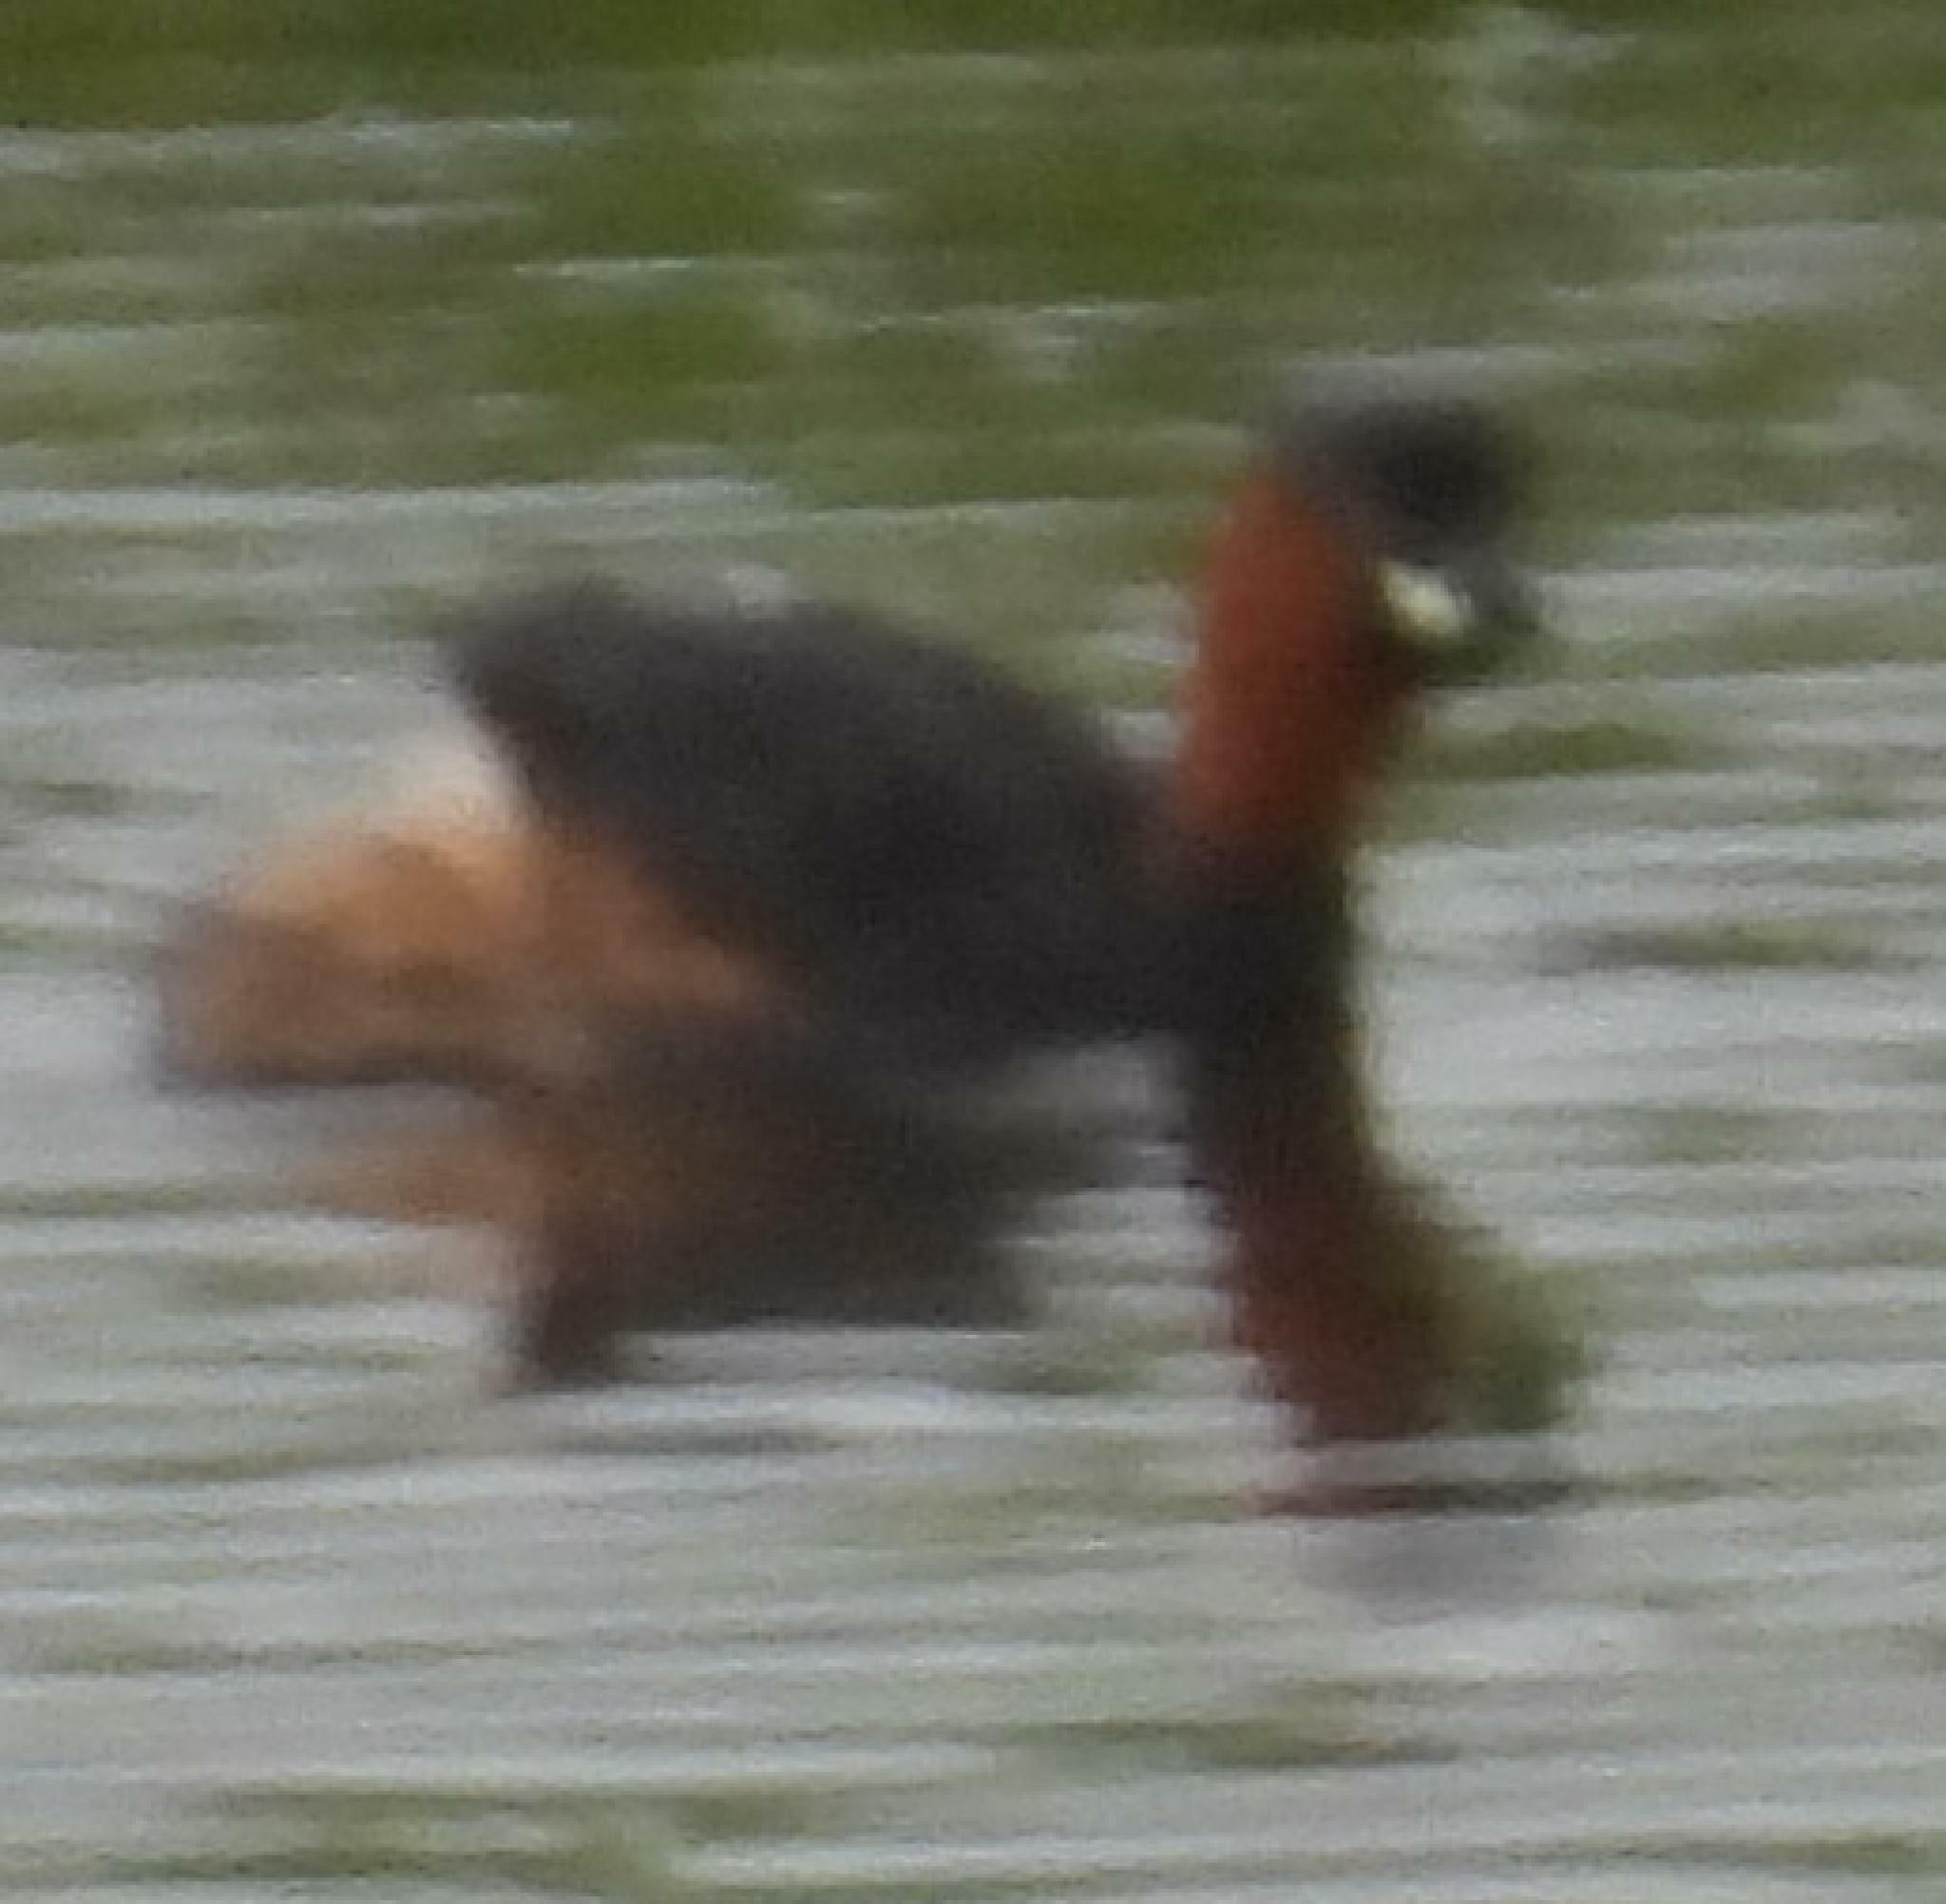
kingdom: Animalia
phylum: Chordata
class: Aves
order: Podicipediformes
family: Podicipedidae
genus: Tachybaptus
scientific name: Tachybaptus ruficollis
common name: Little grebe
